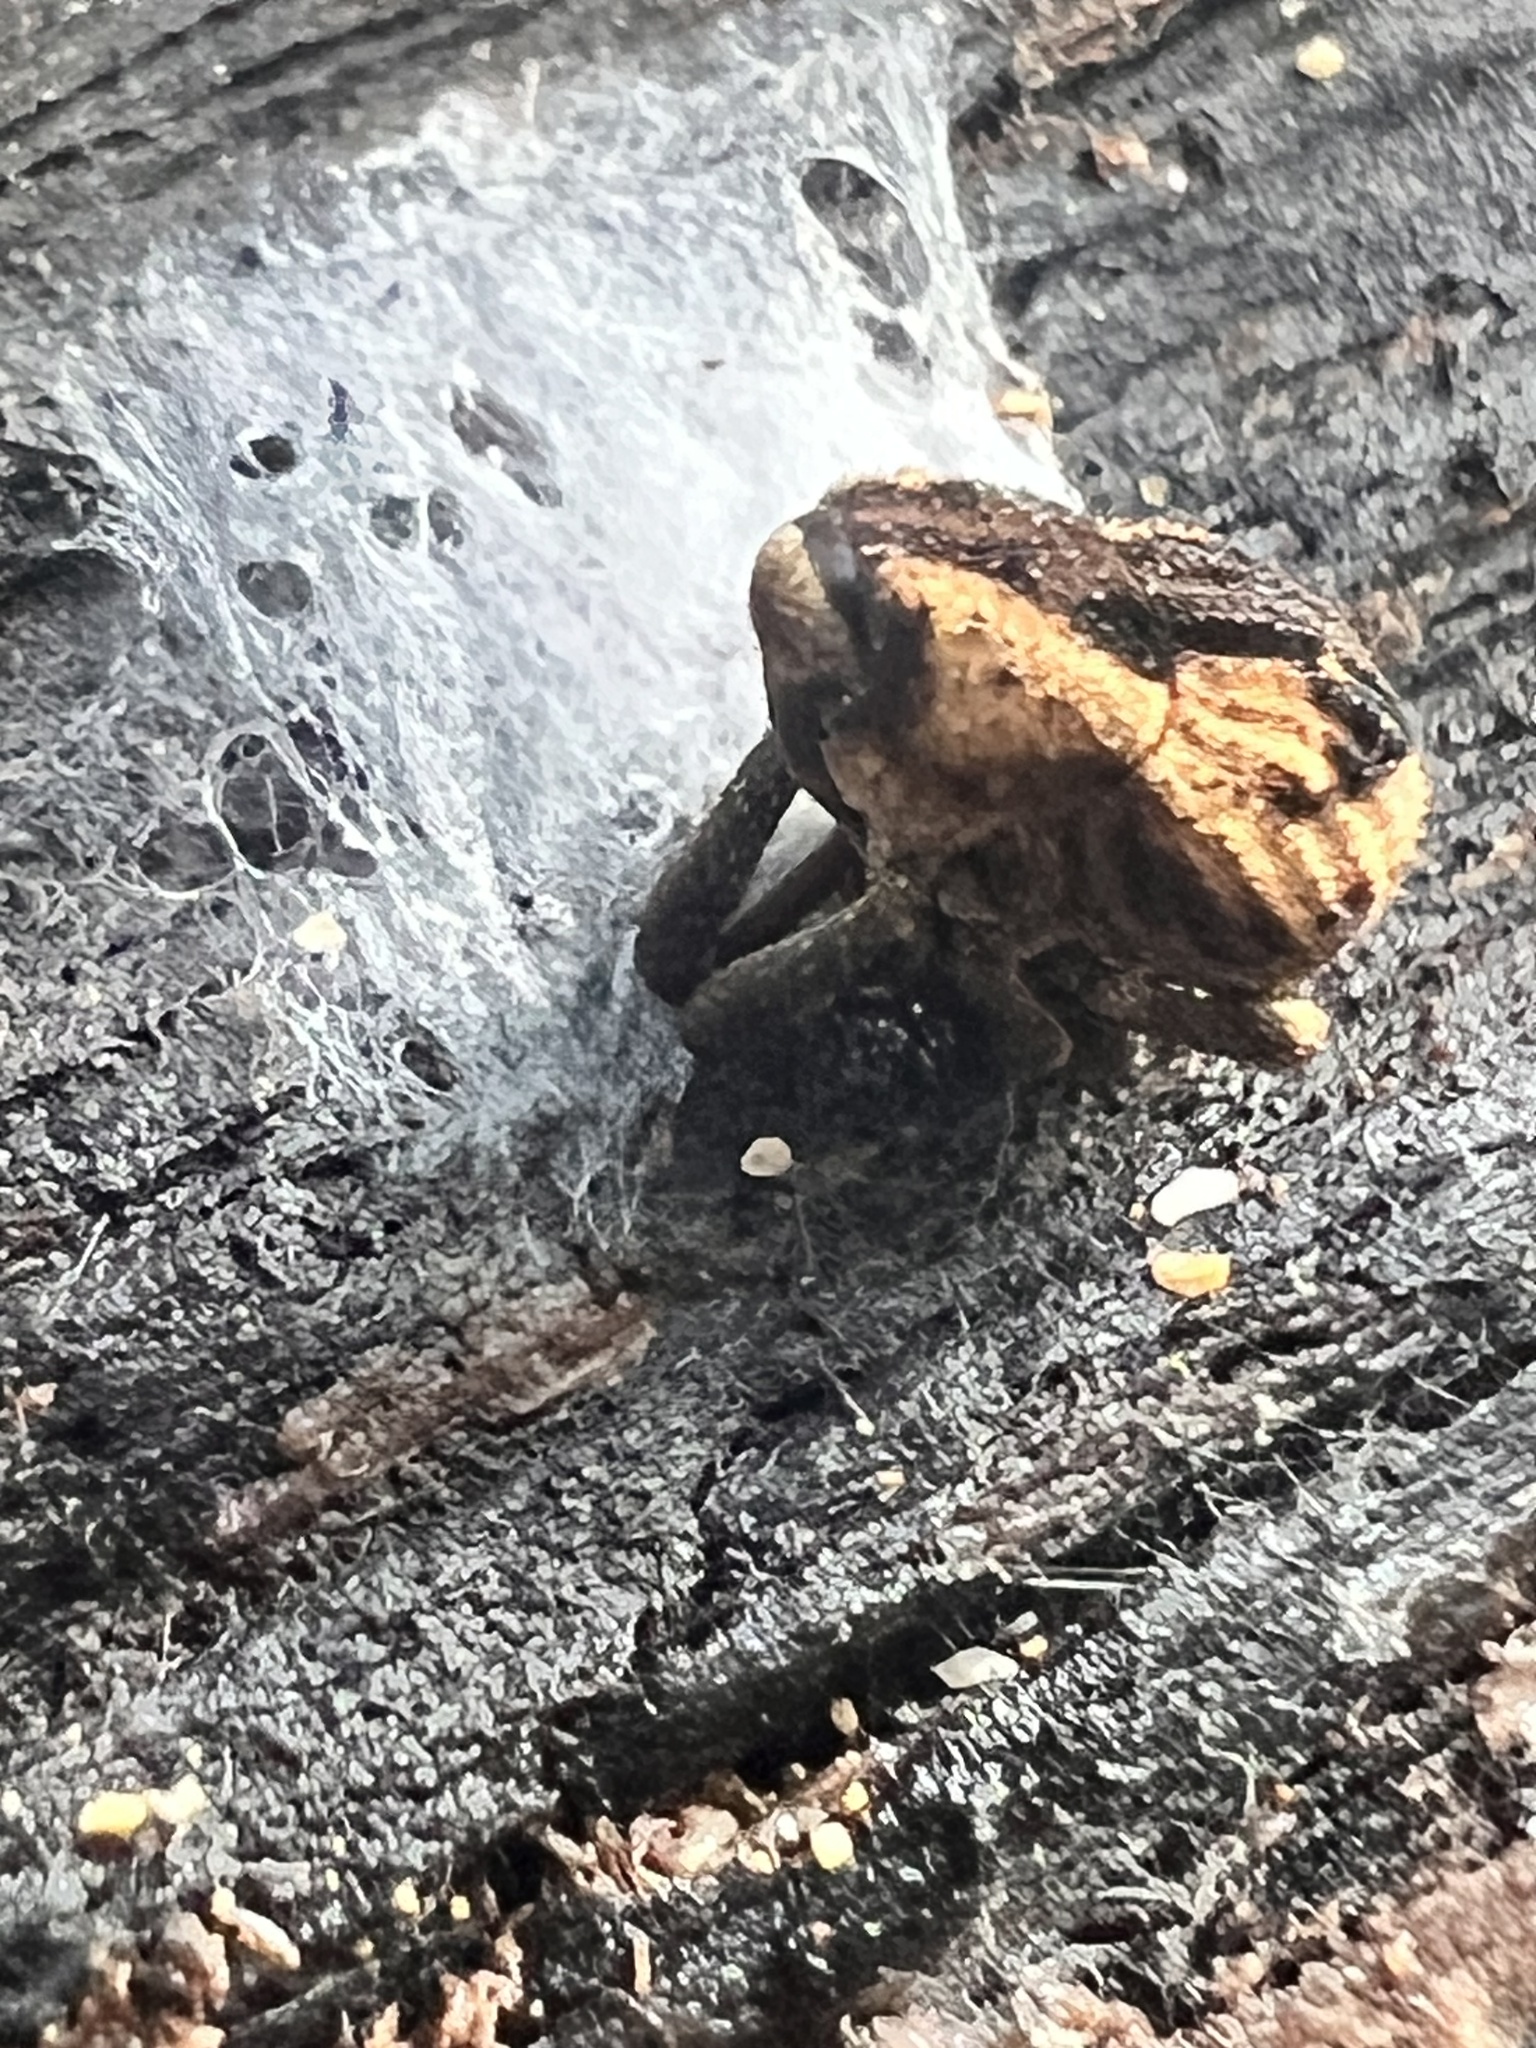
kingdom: Animalia
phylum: Arthropoda
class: Insecta
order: Coleoptera
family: Curculionidae
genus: Nothoperissops
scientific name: Nothoperissops frenatus
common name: Beetle
